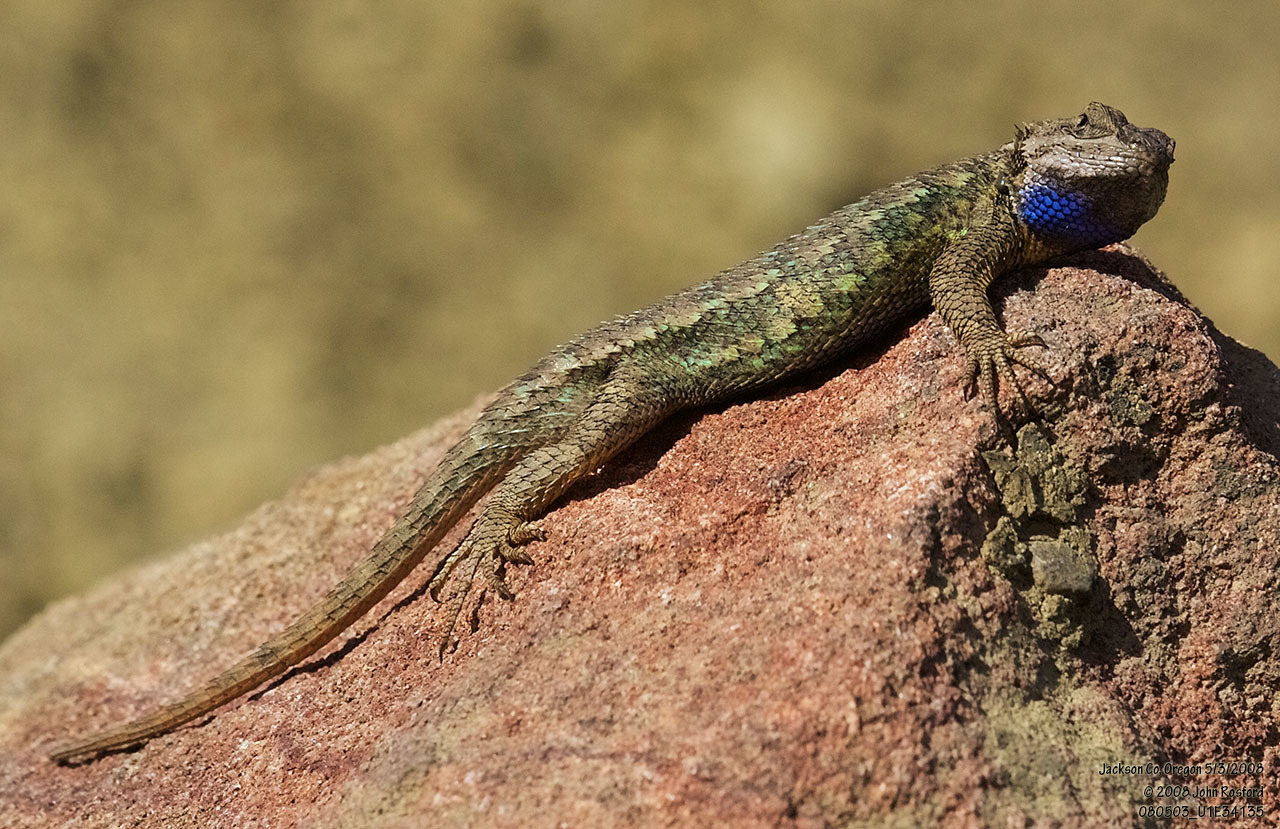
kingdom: Animalia
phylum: Chordata
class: Squamata
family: Phrynosomatidae
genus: Sceloporus
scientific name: Sceloporus occidentalis
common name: Western fence lizard
